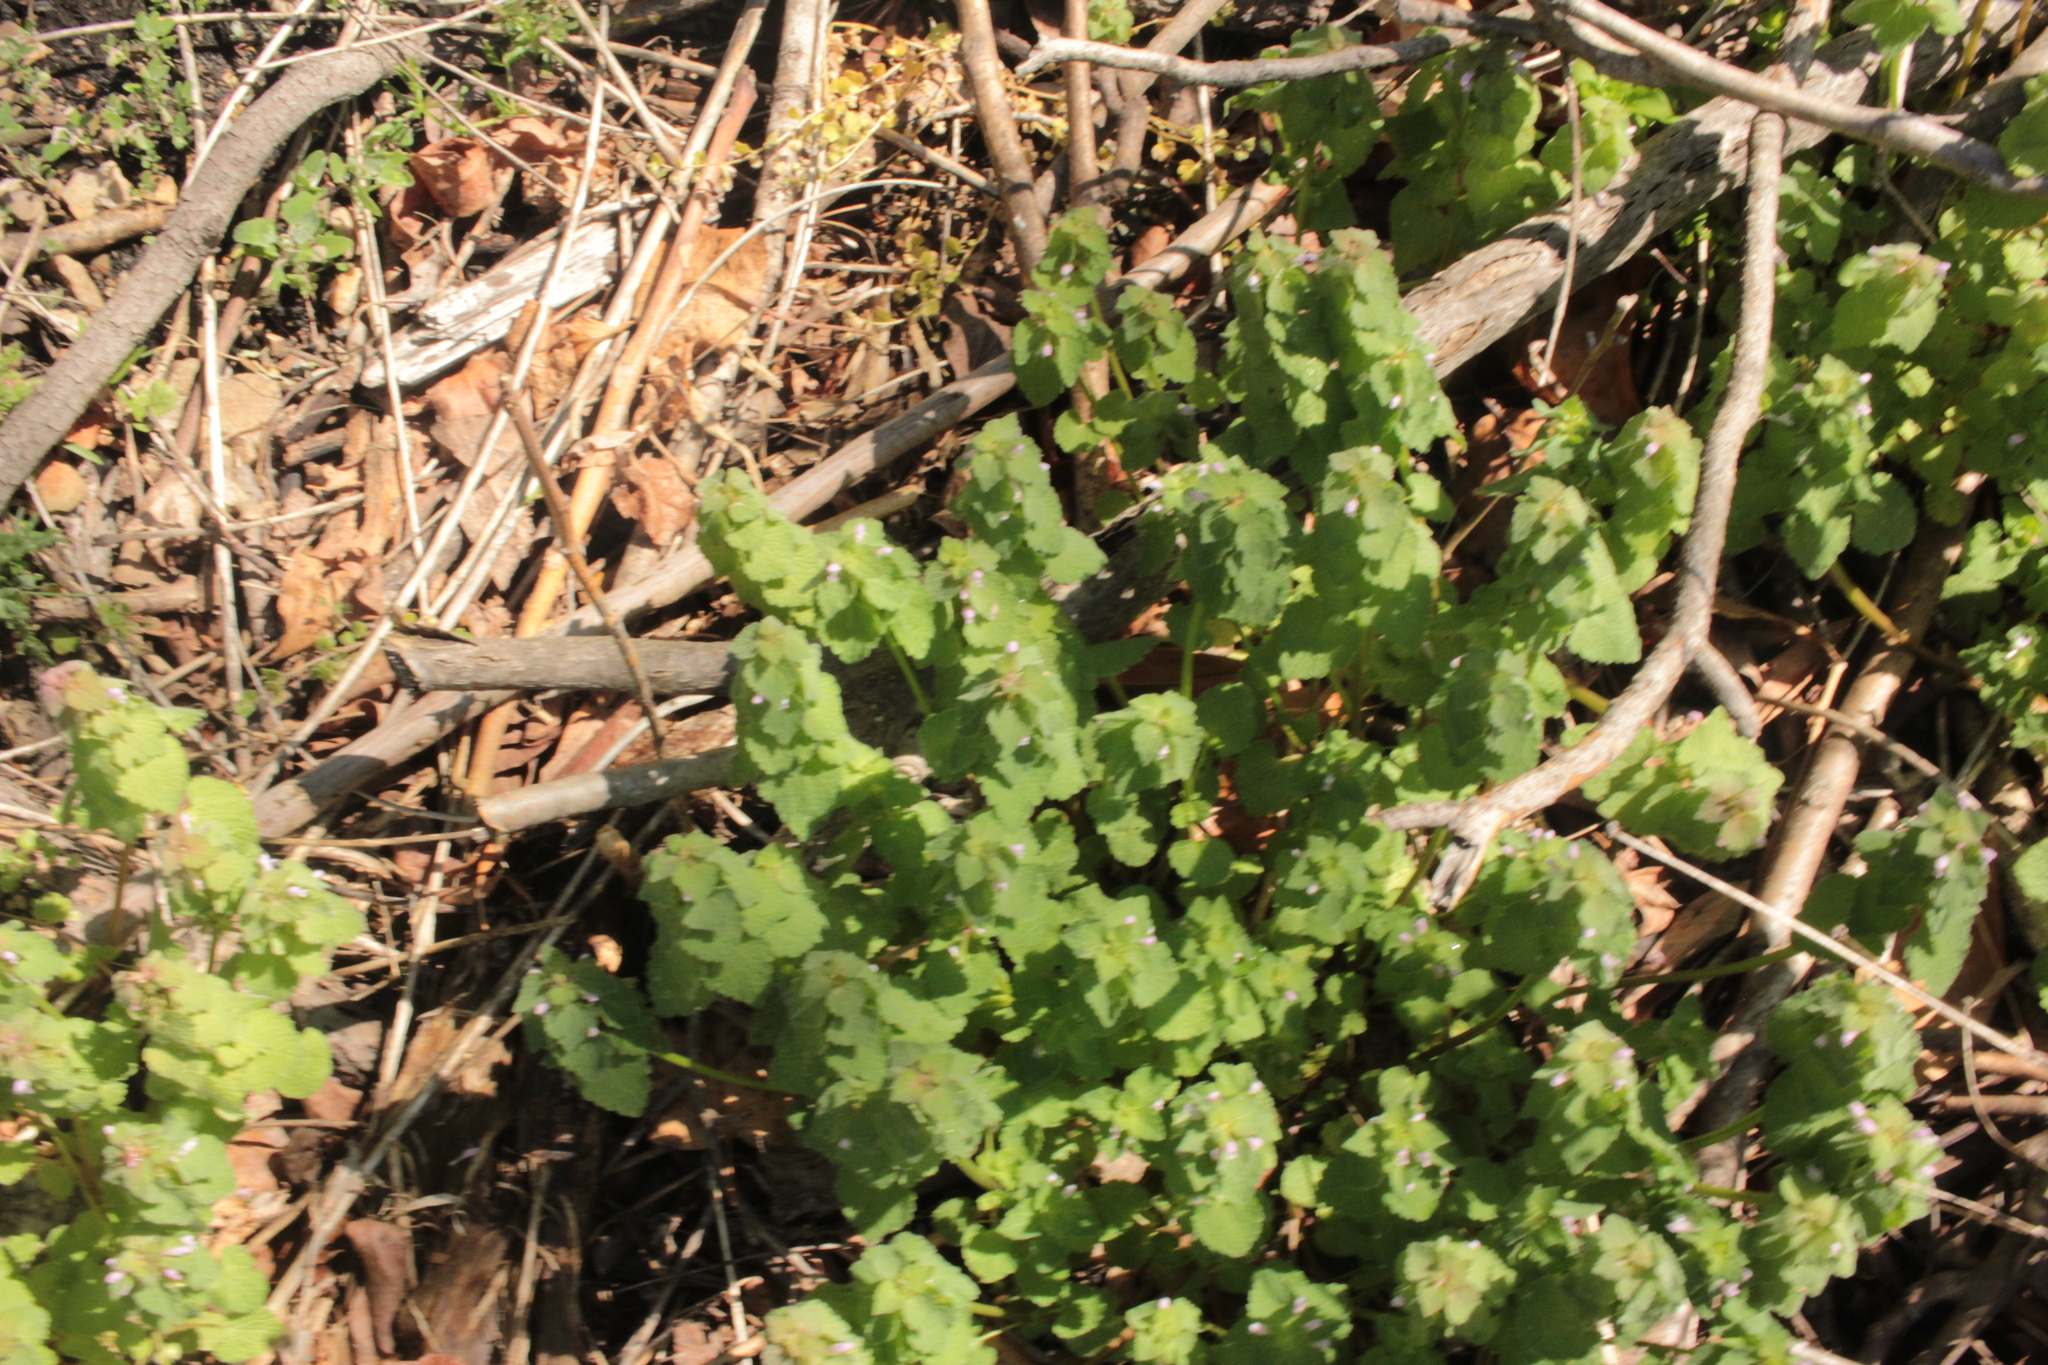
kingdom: Plantae
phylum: Tracheophyta
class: Magnoliopsida
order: Lamiales
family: Lamiaceae
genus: Lamium
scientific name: Lamium purpureum
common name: Red dead-nettle
